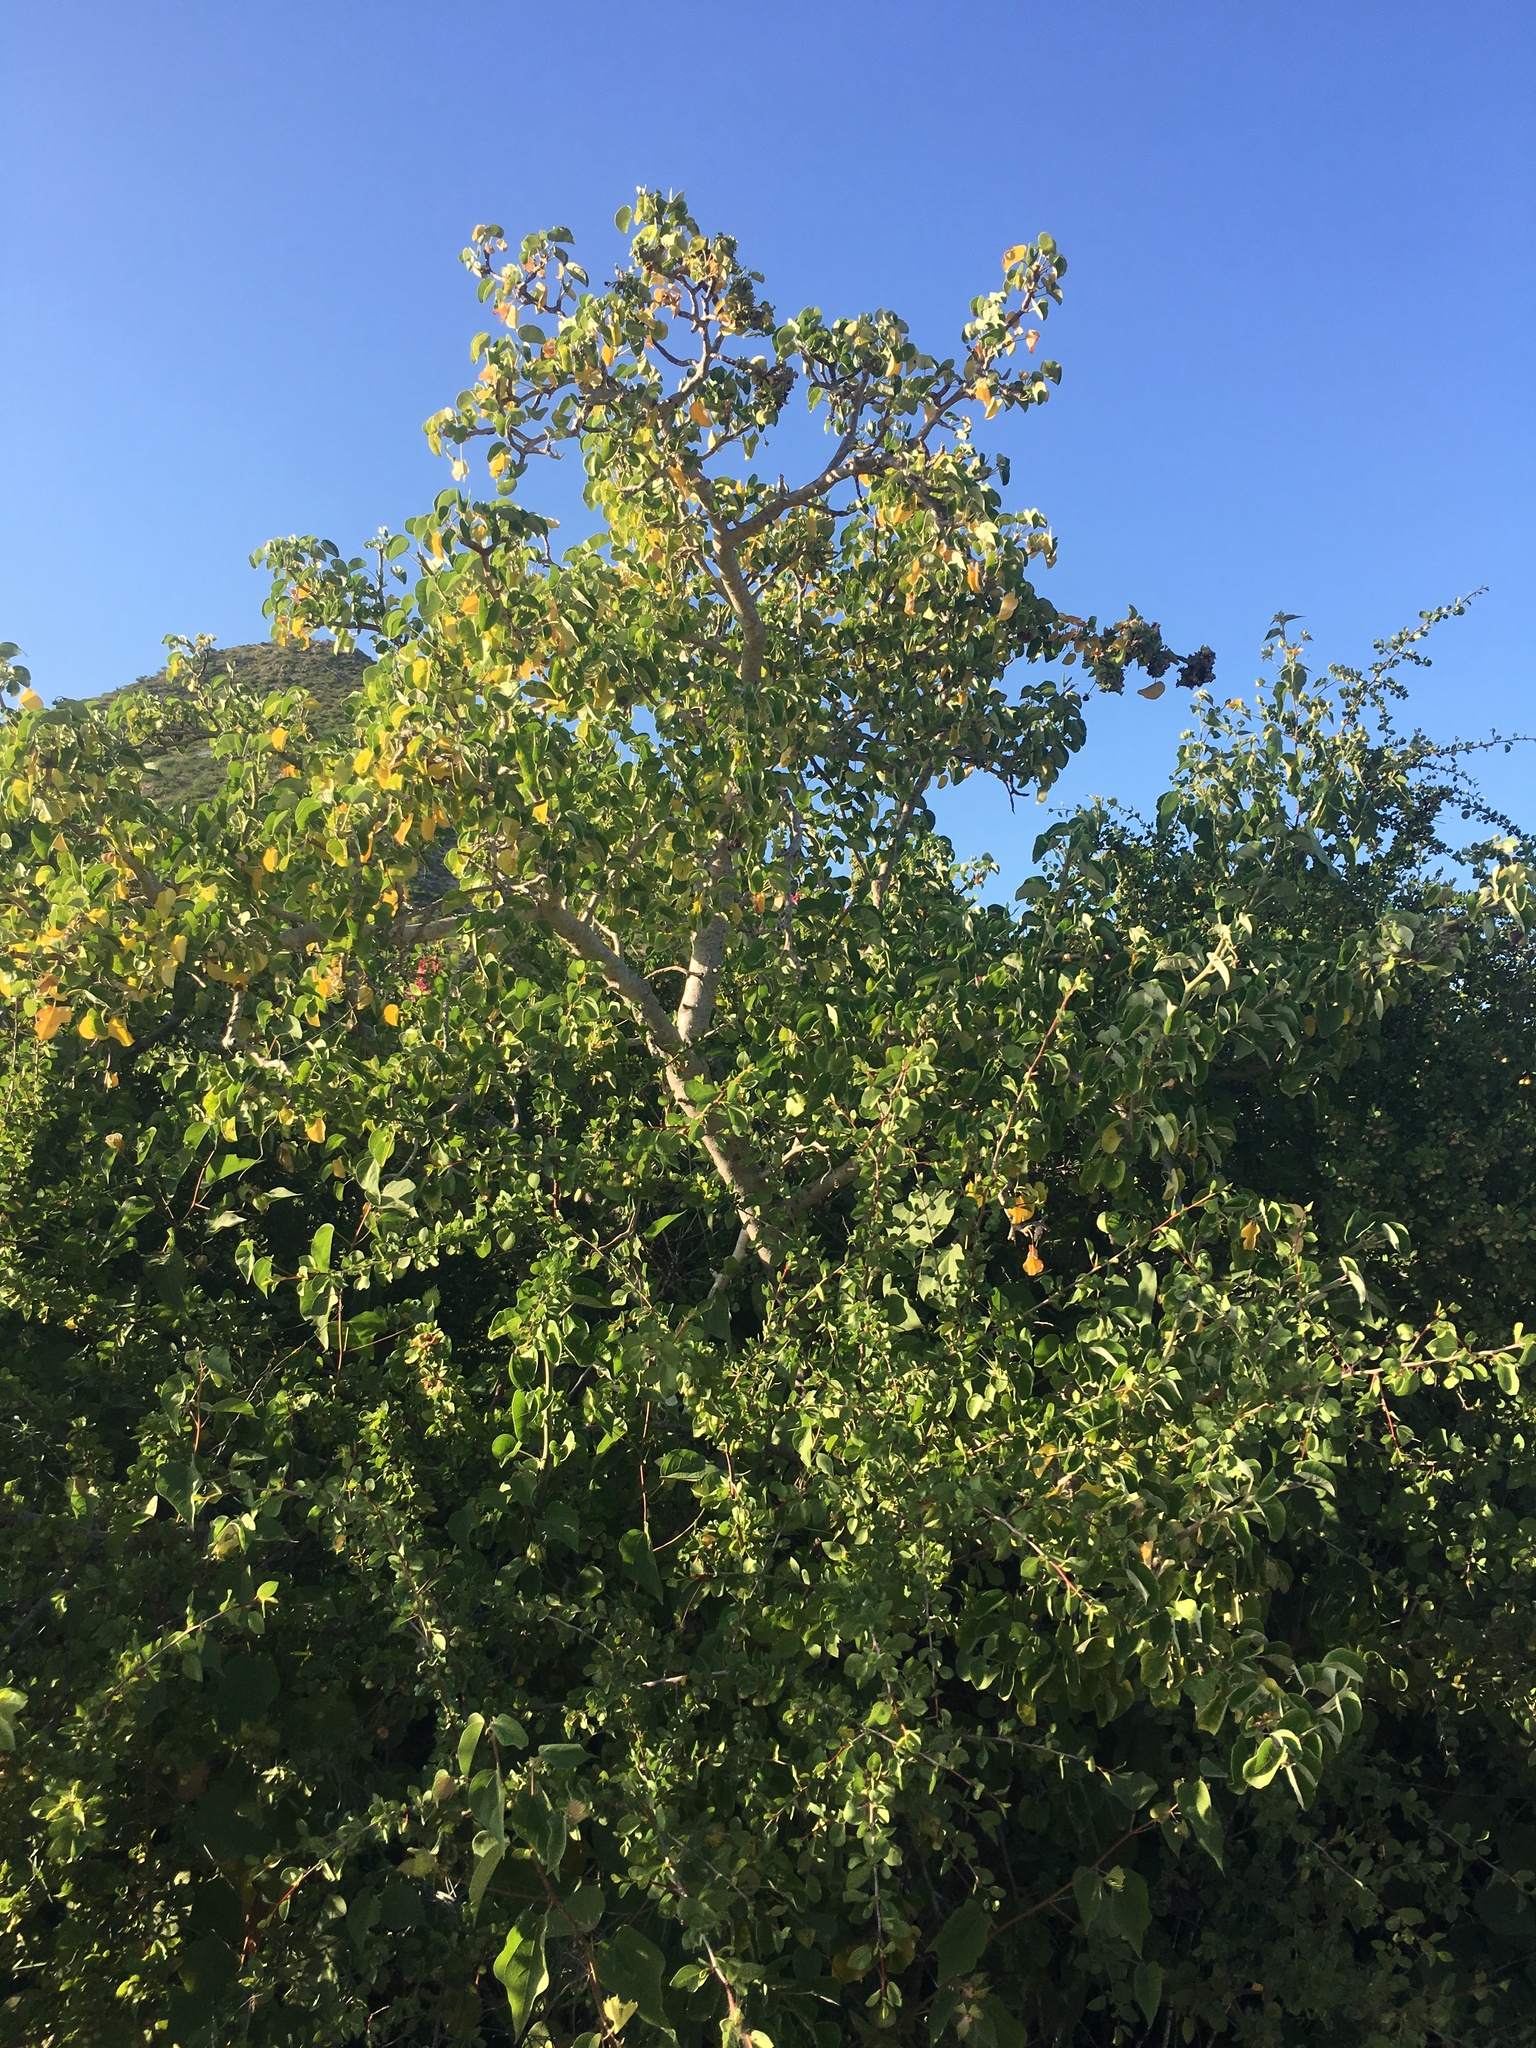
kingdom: Plantae
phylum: Tracheophyta
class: Magnoliopsida
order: Malpighiales
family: Euphorbiaceae
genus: Jatropha
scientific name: Jatropha cinerea
